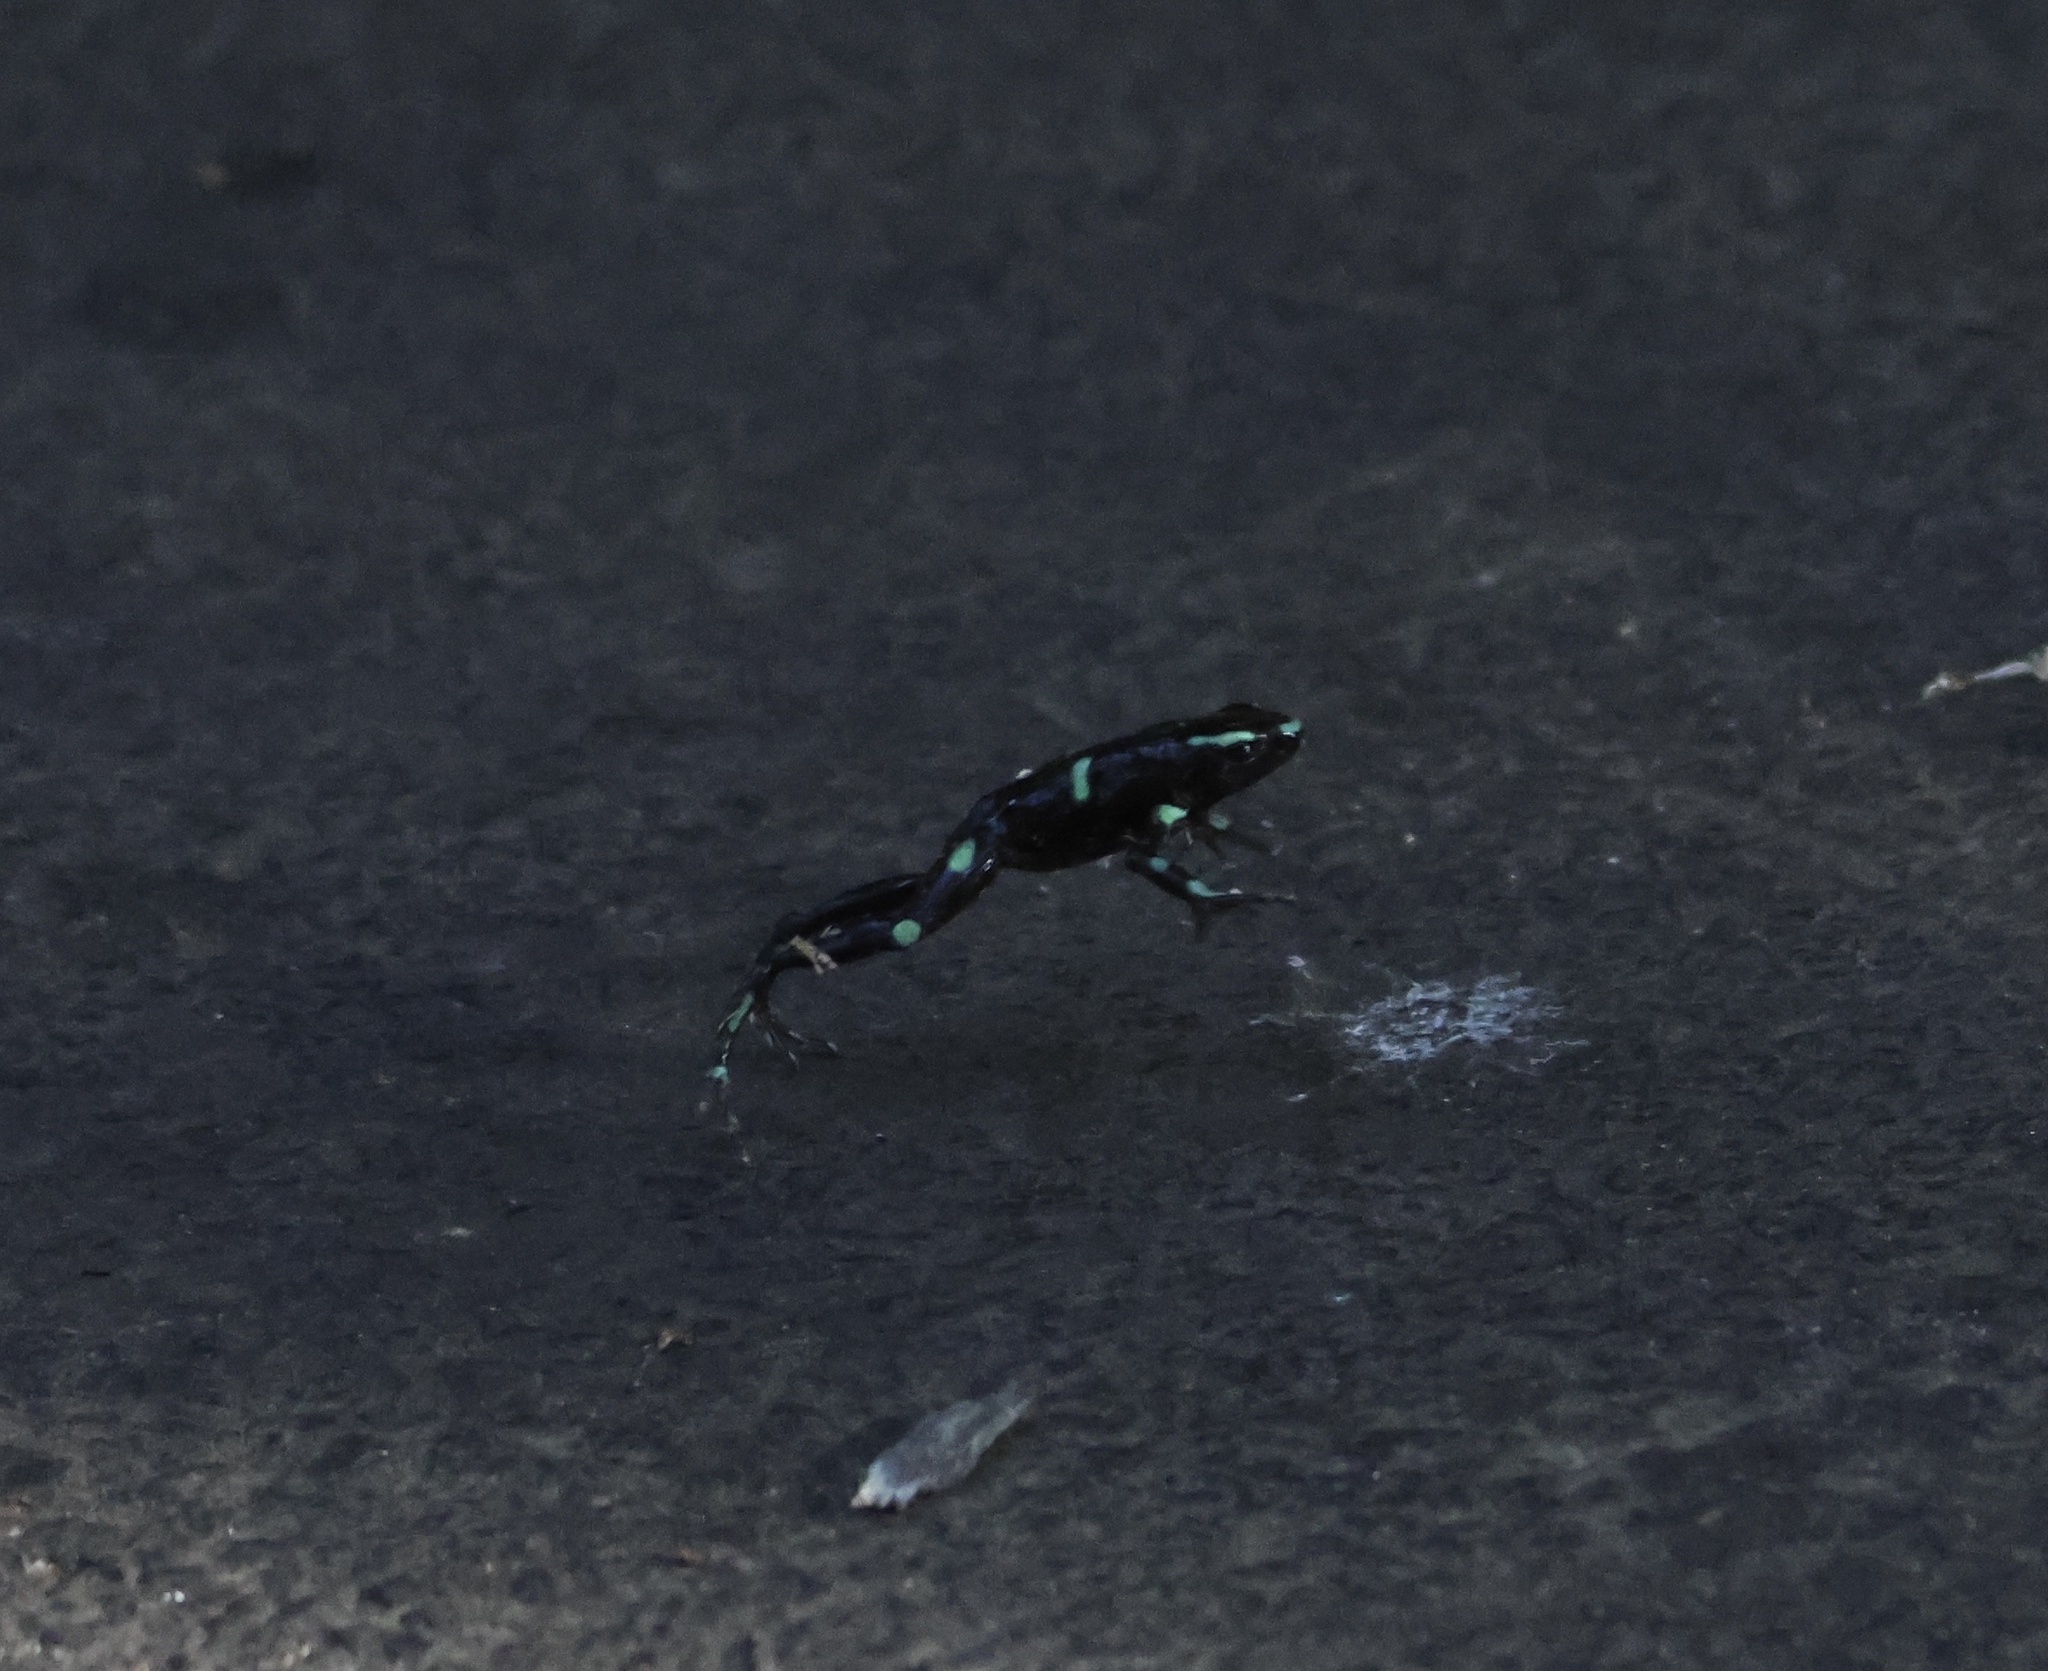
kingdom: Animalia
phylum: Chordata
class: Amphibia
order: Anura
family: Dendrobatidae
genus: Dendrobates
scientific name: Dendrobates auratus
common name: Green and black poison dart frog
